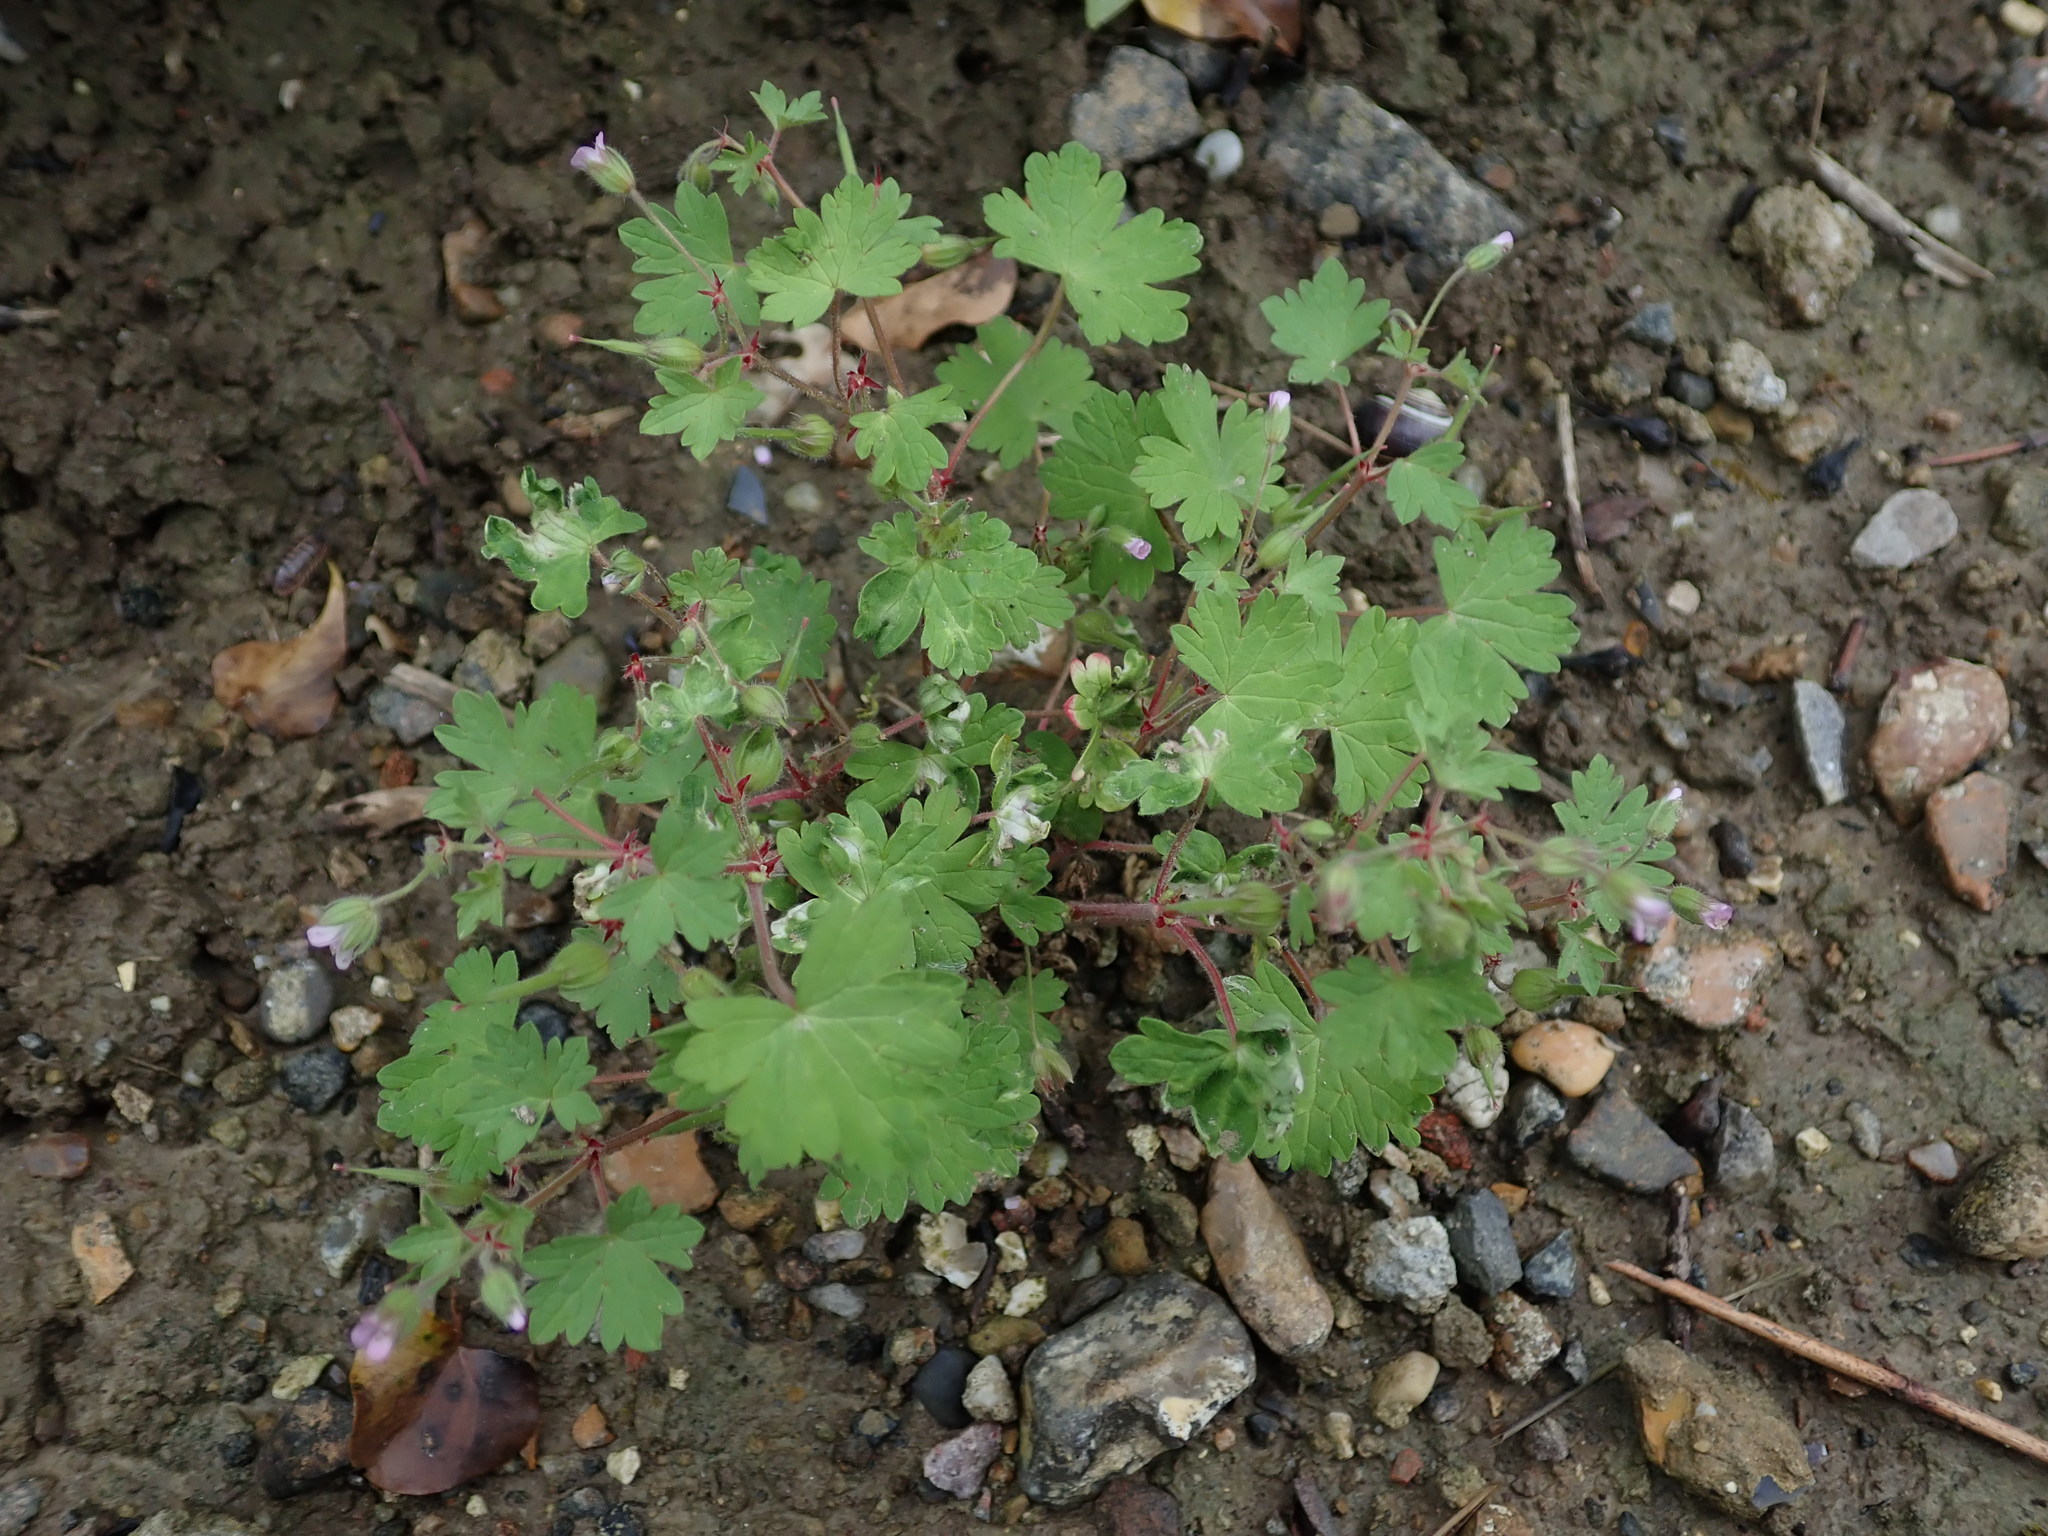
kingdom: Plantae
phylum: Tracheophyta
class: Magnoliopsida
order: Geraniales
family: Geraniaceae
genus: Geranium
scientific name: Geranium rotundifolium
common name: Round-leaved crane's-bill
